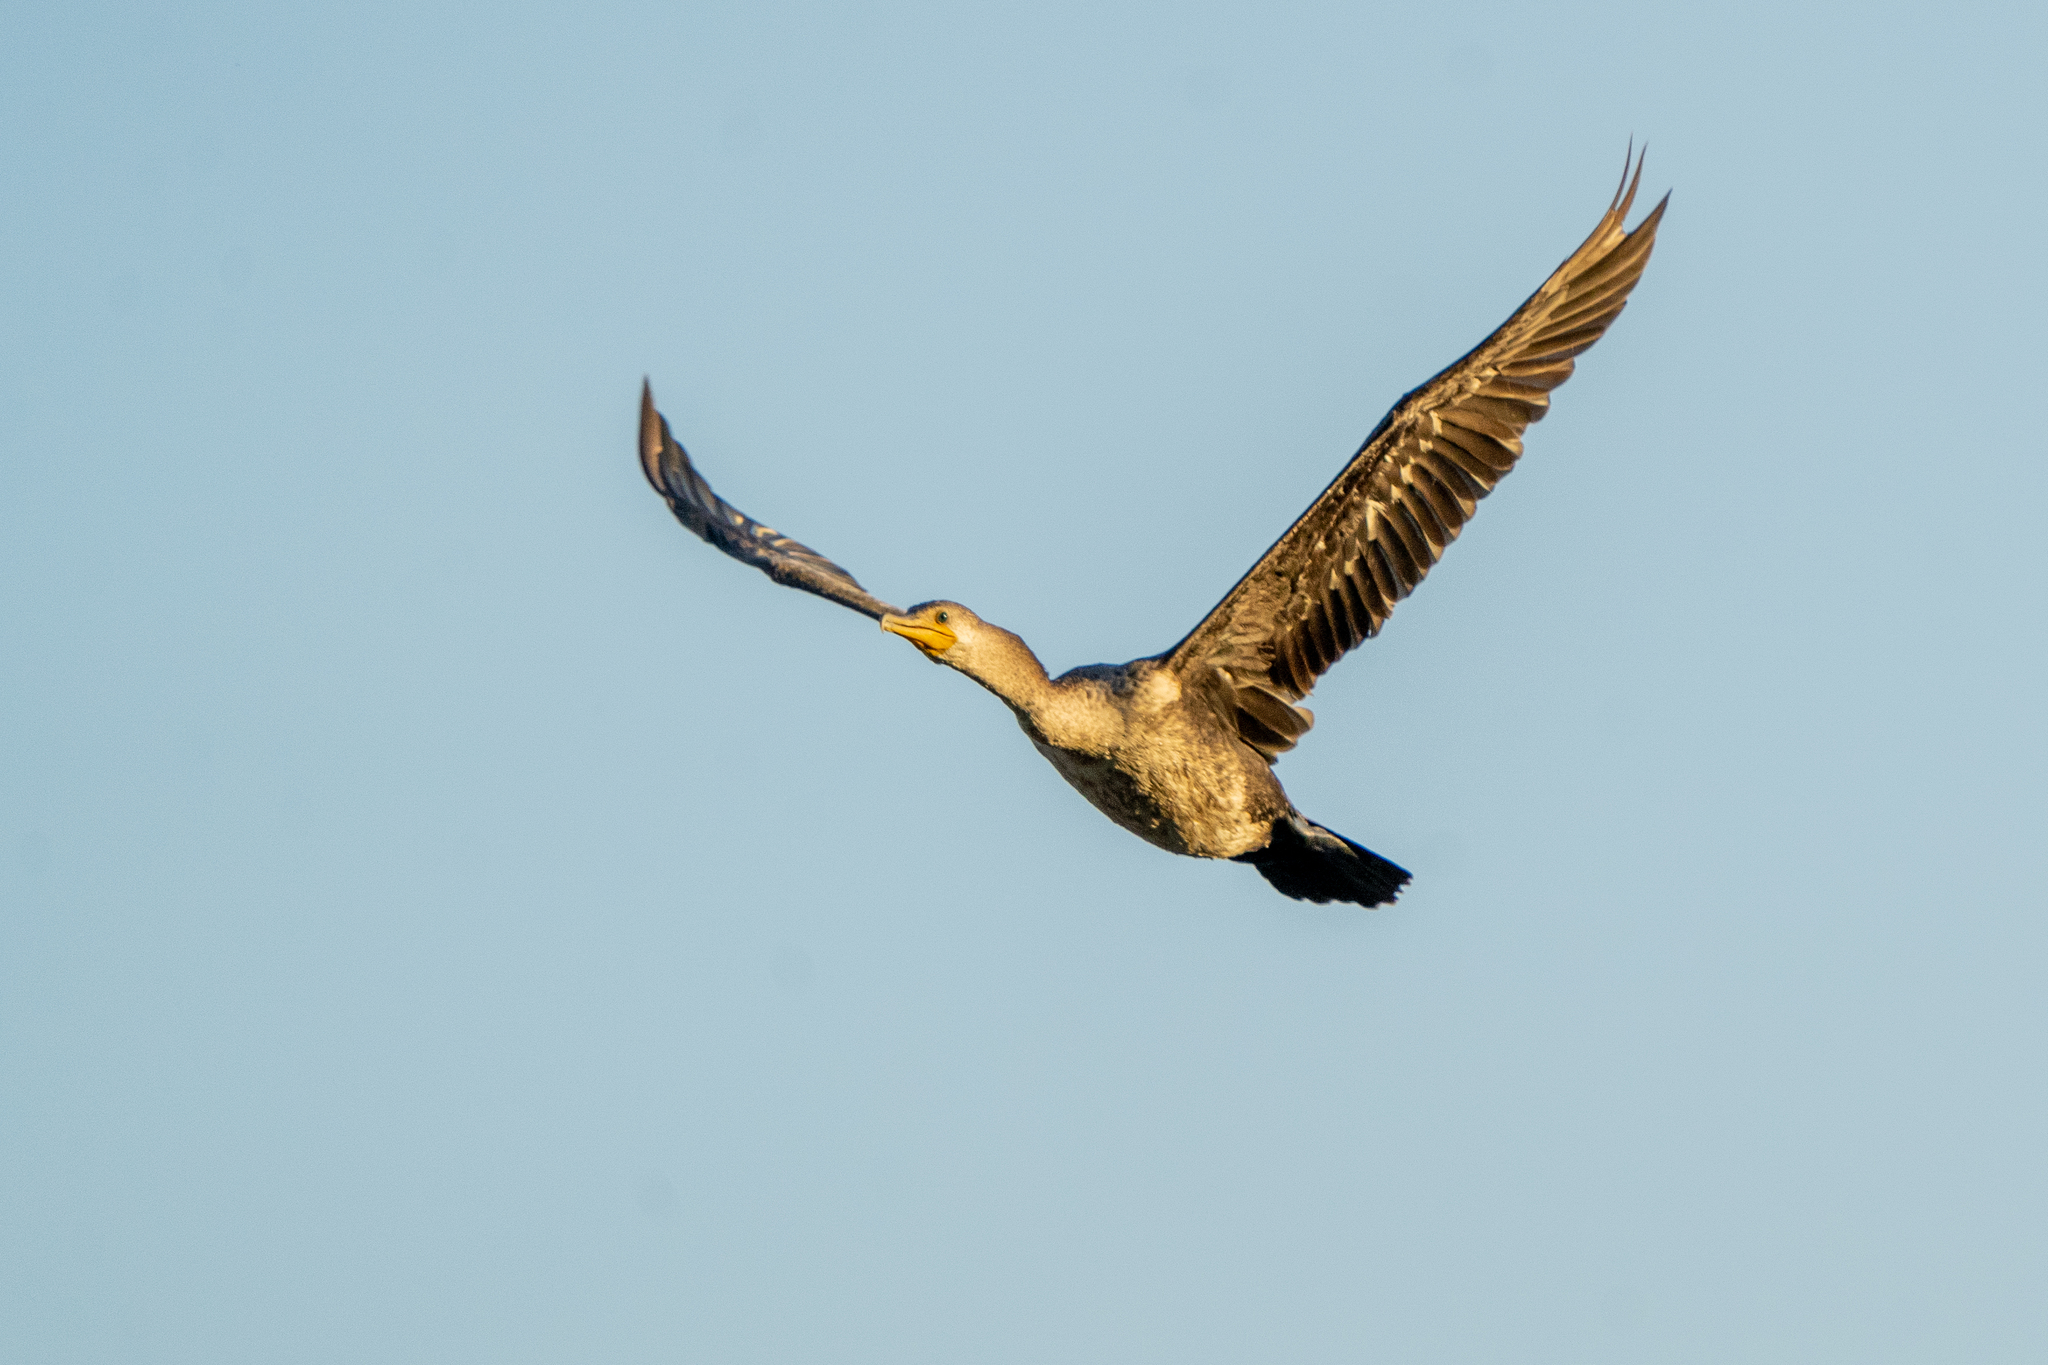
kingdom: Animalia
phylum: Chordata
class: Aves
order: Suliformes
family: Phalacrocoracidae
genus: Phalacrocorax
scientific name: Phalacrocorax brasilianus
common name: Neotropic cormorant
